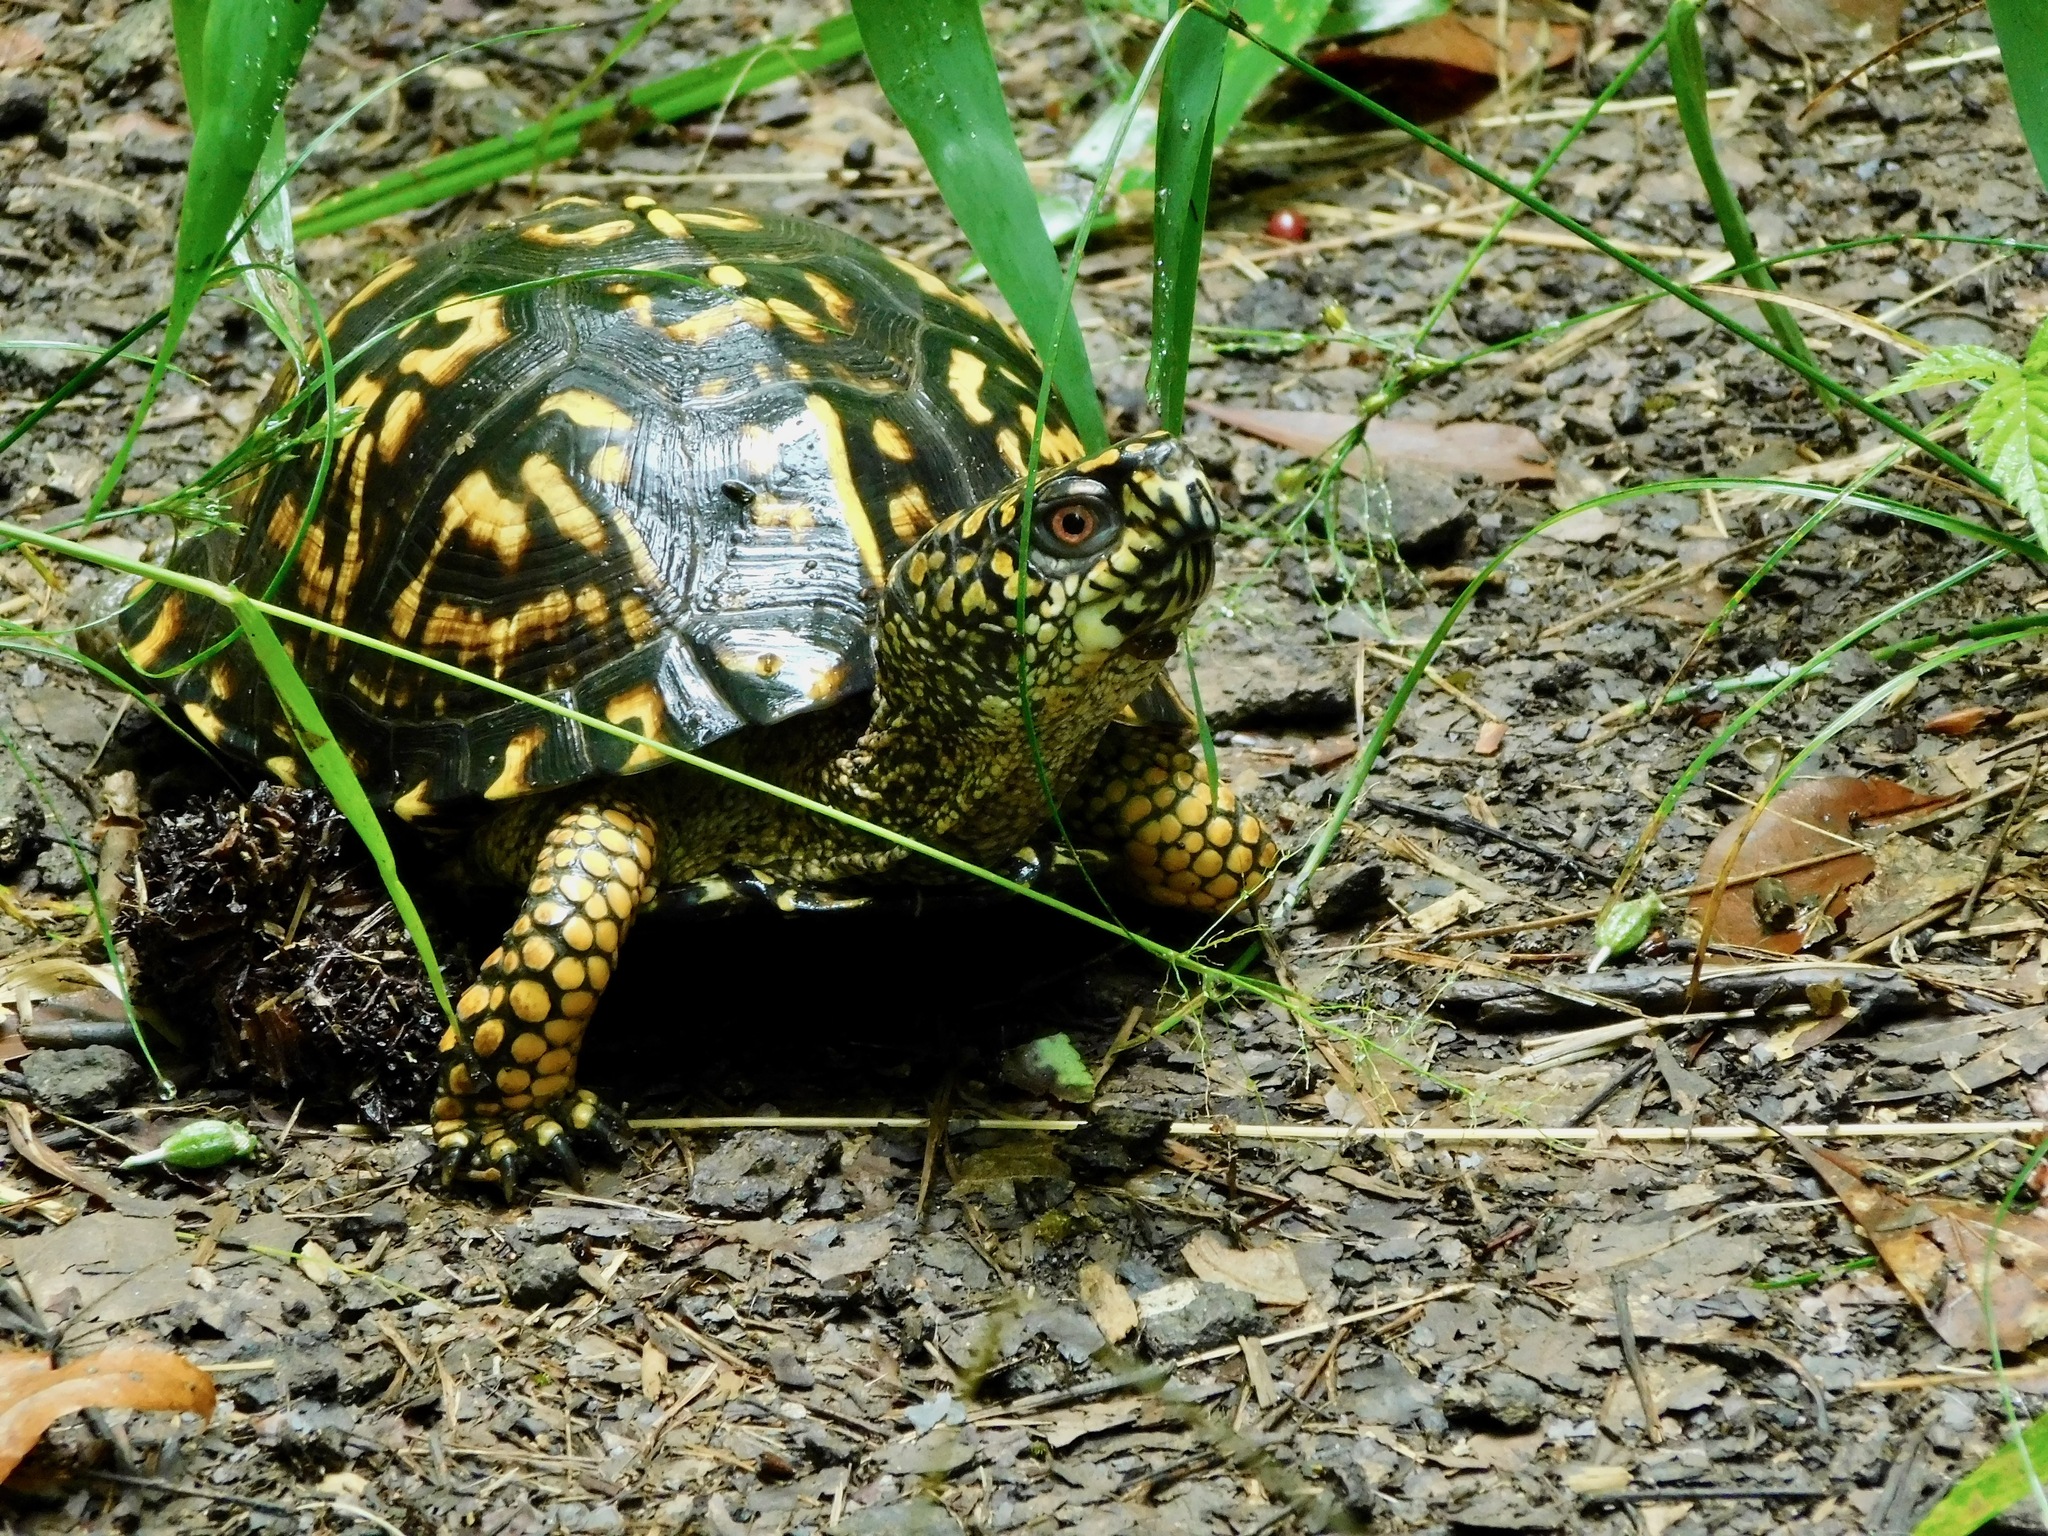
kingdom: Animalia
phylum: Chordata
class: Testudines
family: Emydidae
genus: Terrapene
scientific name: Terrapene carolina
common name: Common box turtle
